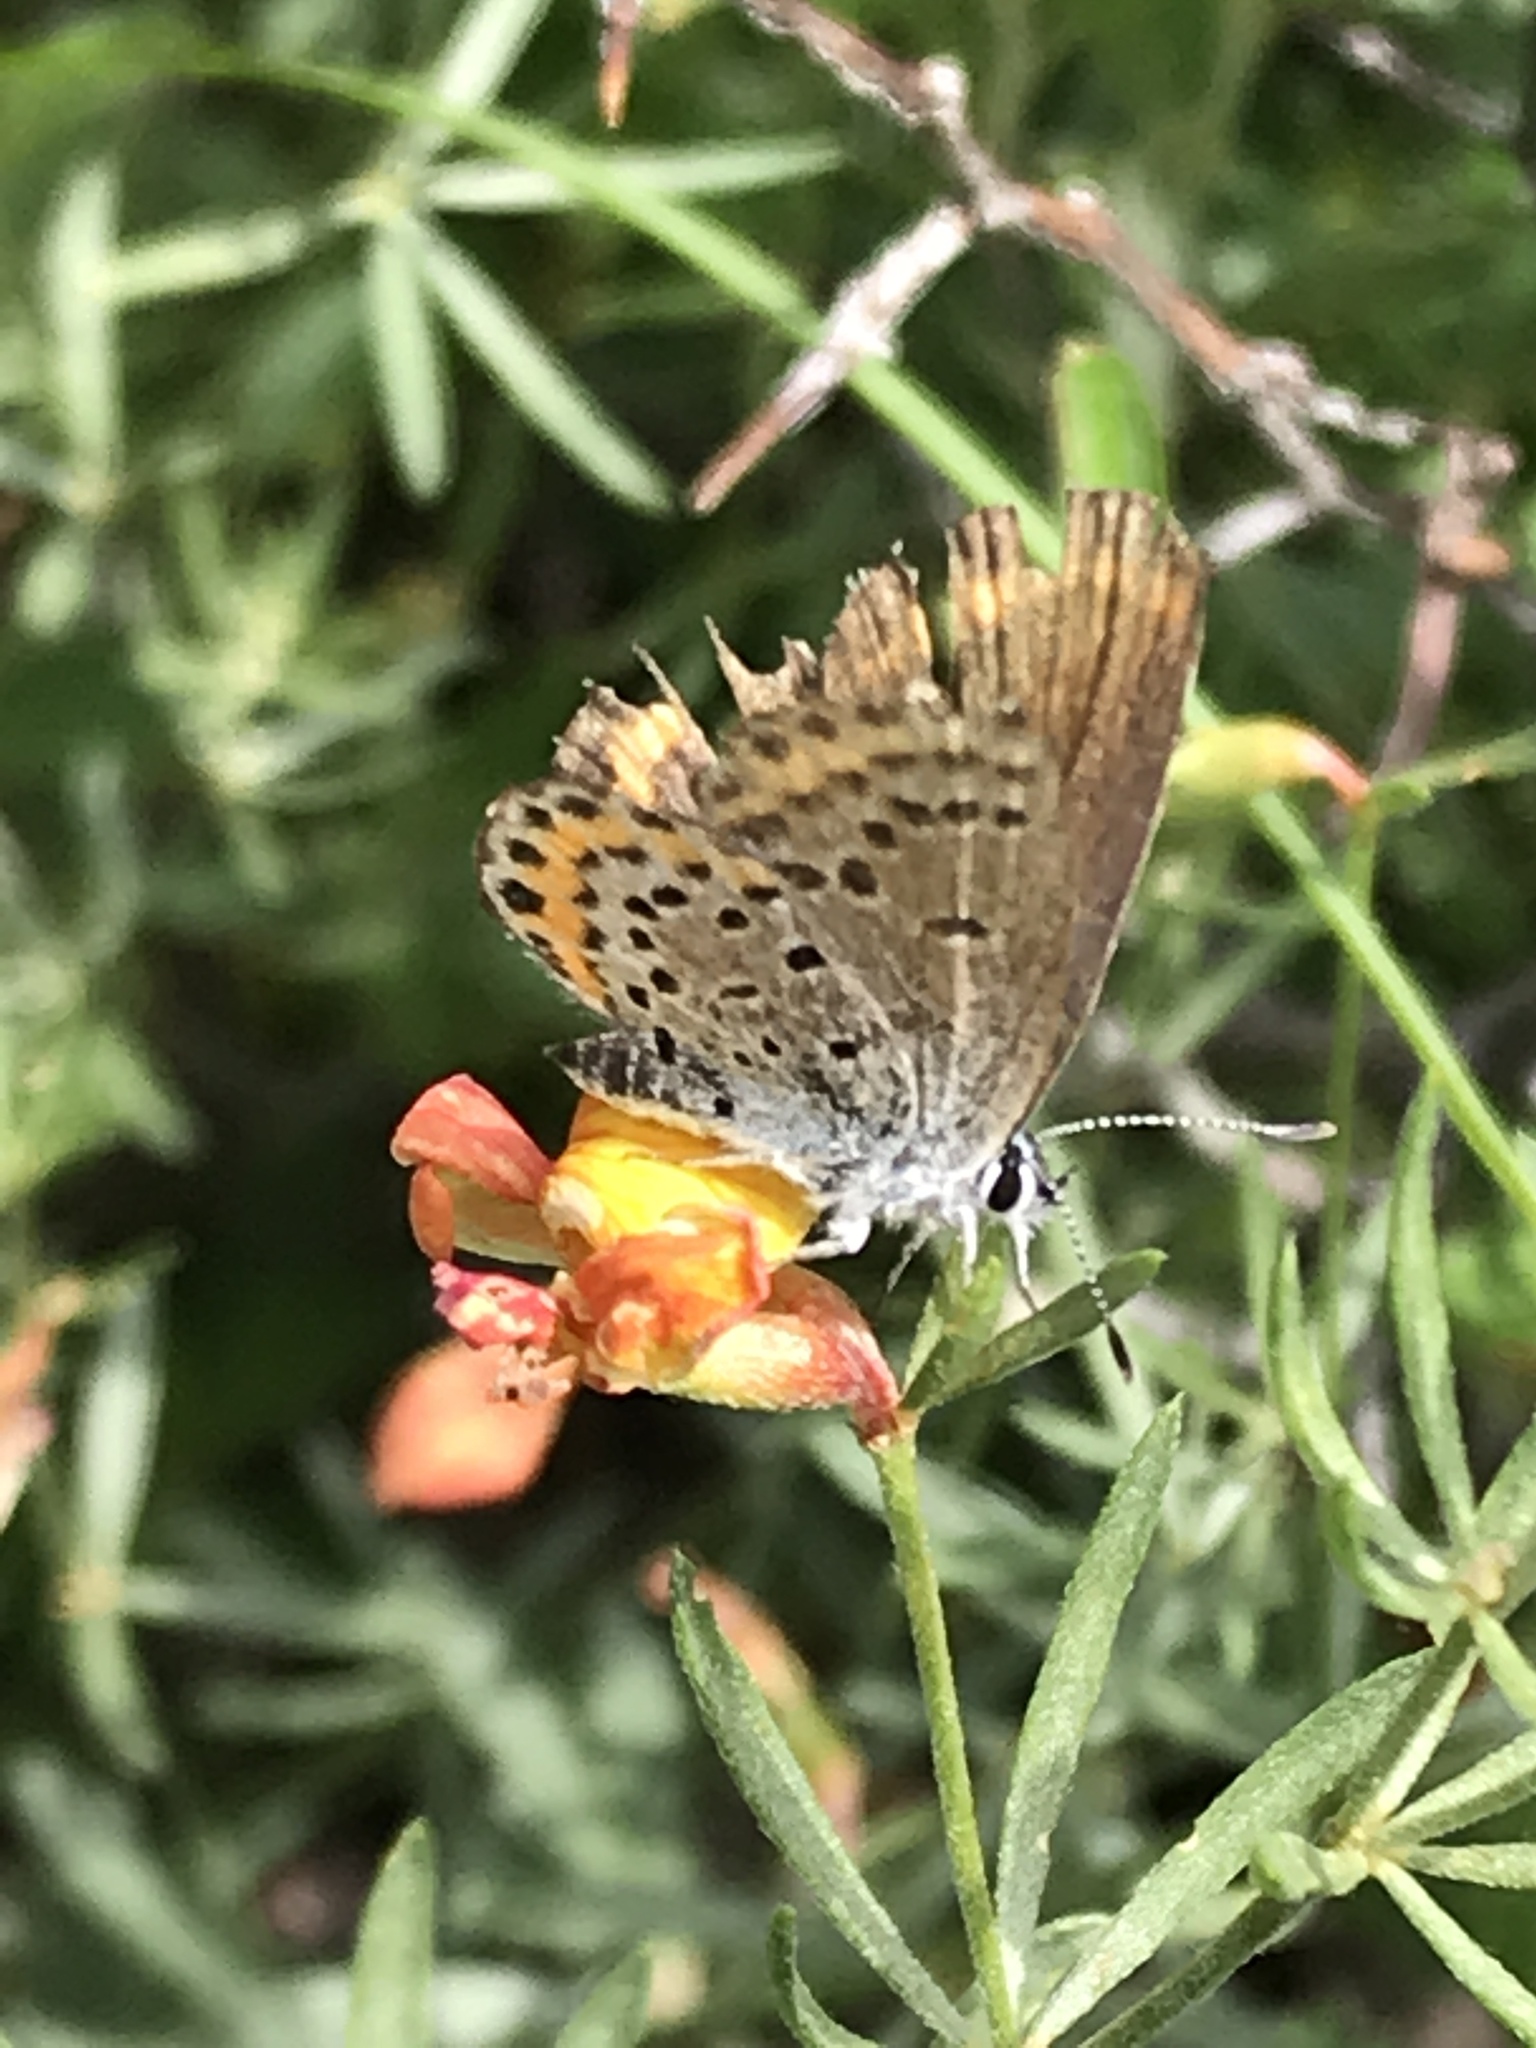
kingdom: Animalia
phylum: Arthropoda
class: Insecta
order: Lepidoptera
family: Lycaenidae
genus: Euphilotes
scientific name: Euphilotes spaldingi
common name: Spalding's blue
